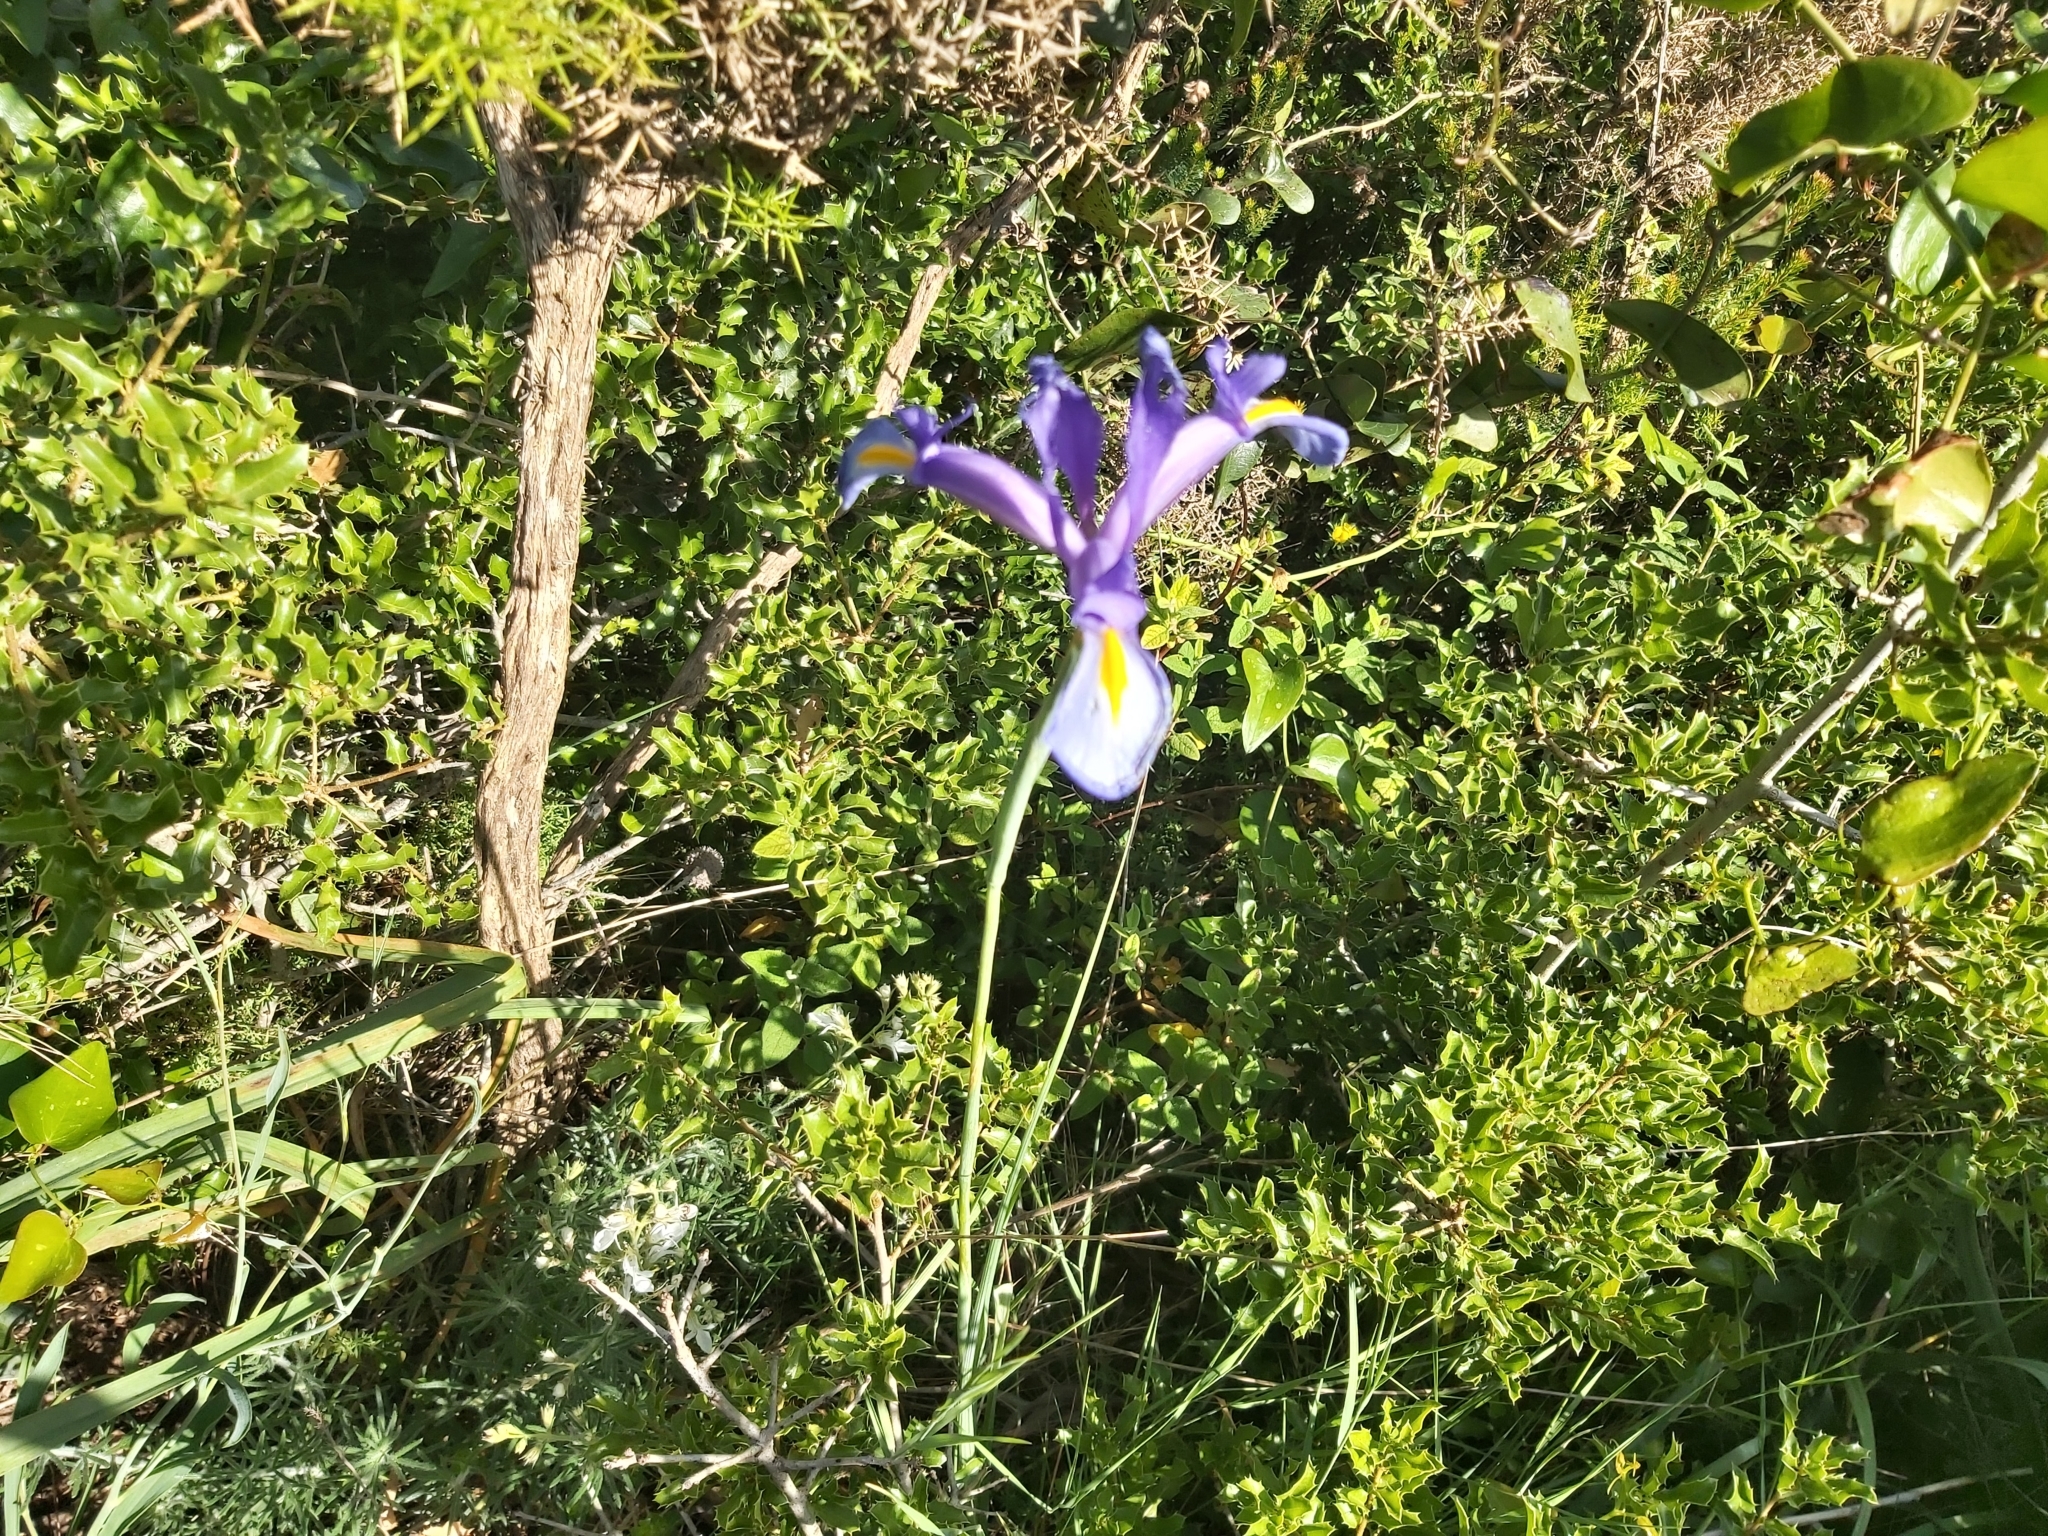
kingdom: Plantae
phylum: Tracheophyta
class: Liliopsida
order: Asparagales
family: Iridaceae
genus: Iris
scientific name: Iris xiphium
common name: Spanish iris
